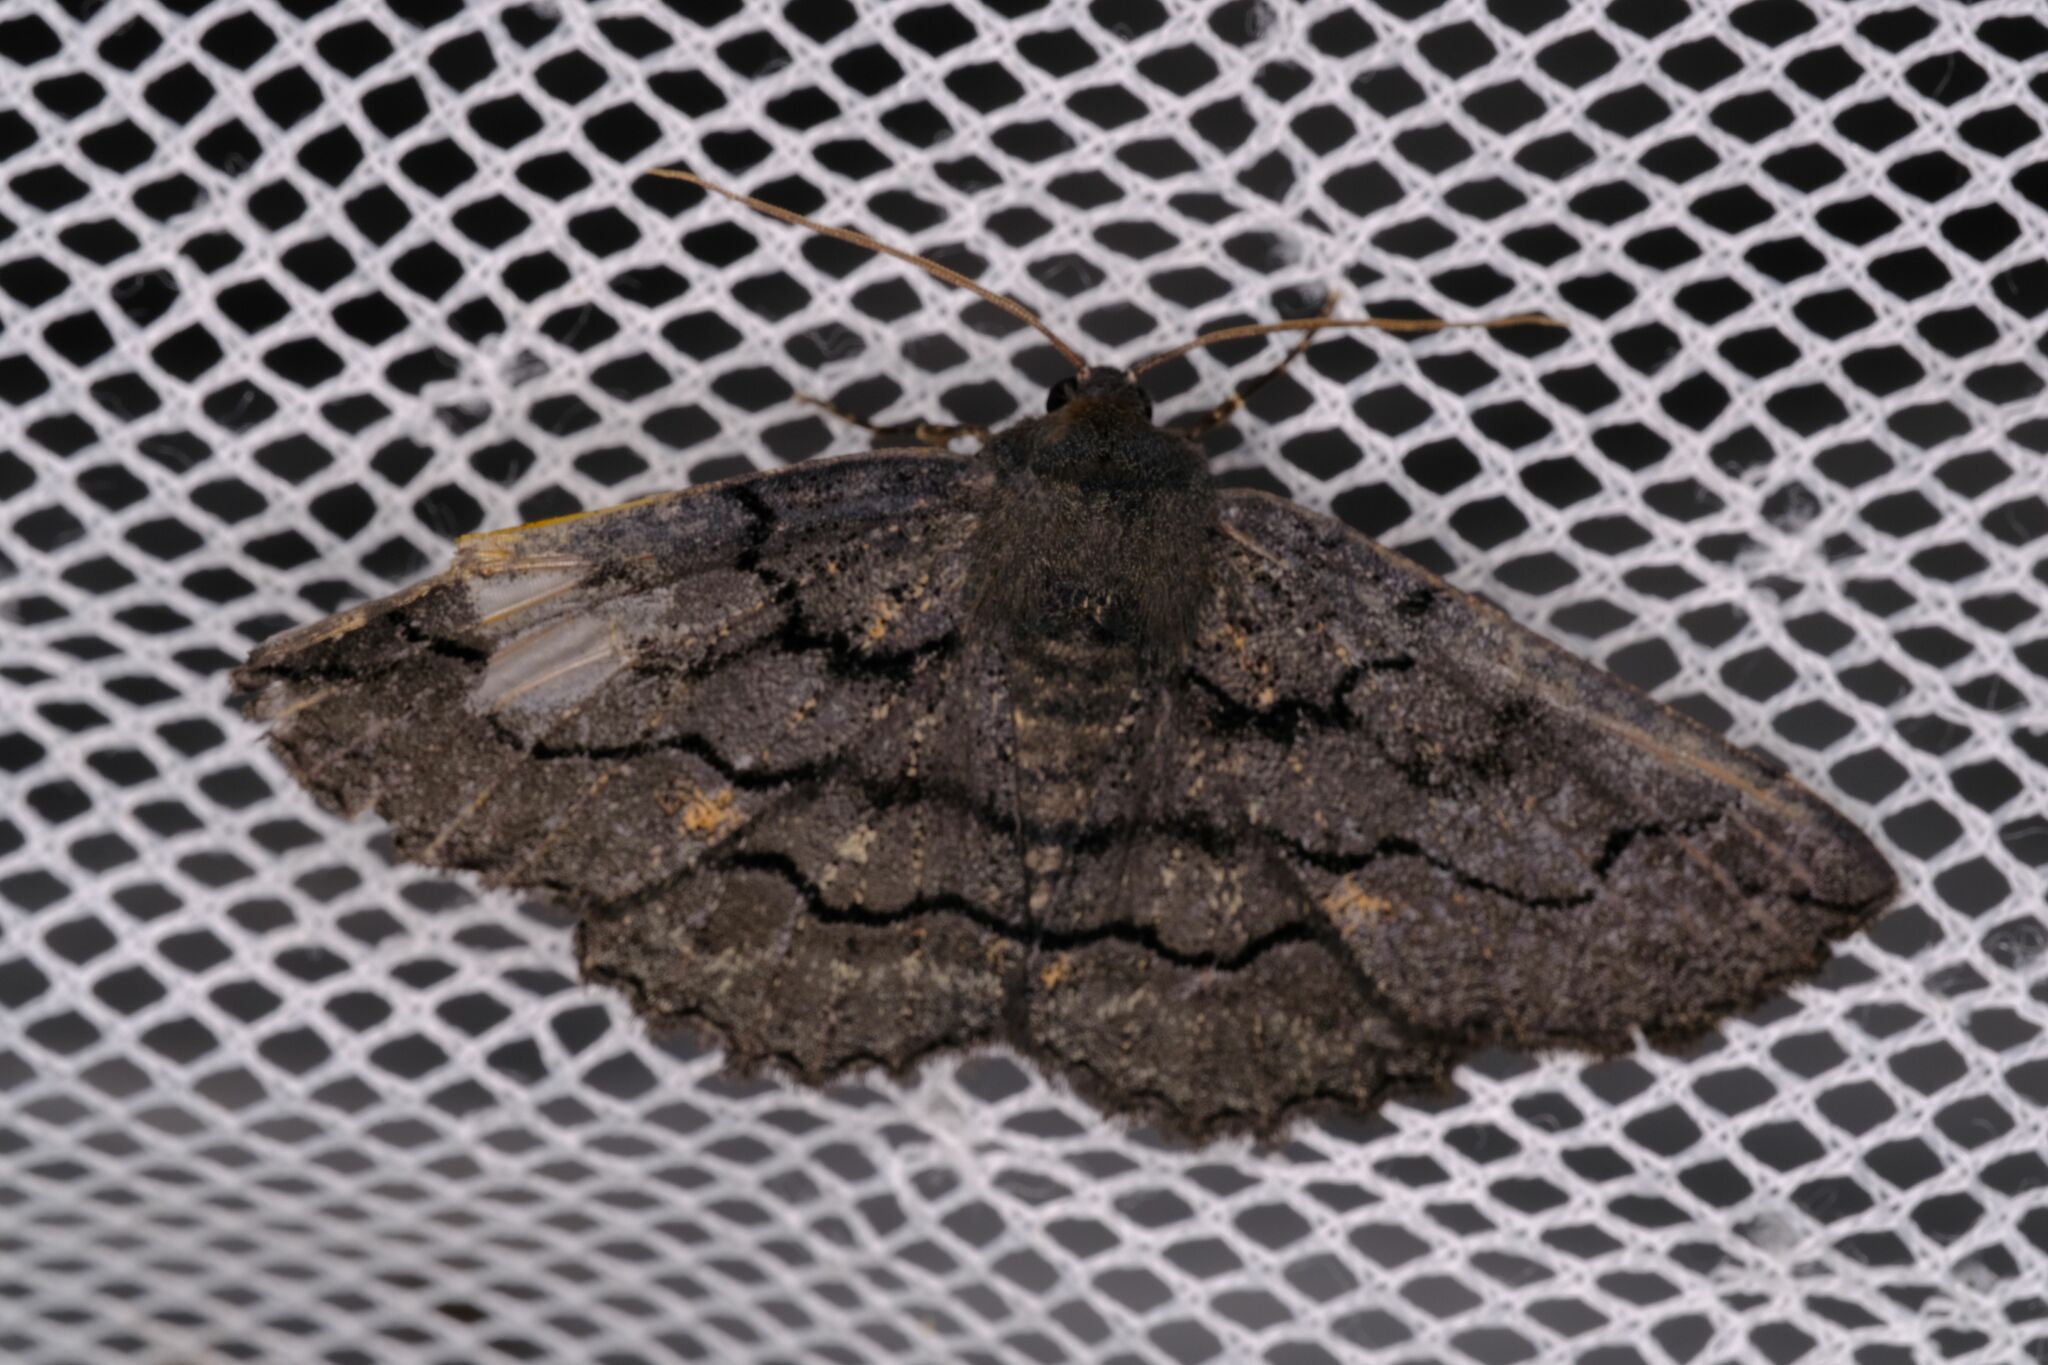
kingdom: Animalia
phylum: Arthropoda
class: Insecta
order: Lepidoptera
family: Geometridae
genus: Melanodes
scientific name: Melanodes anthracitaria
